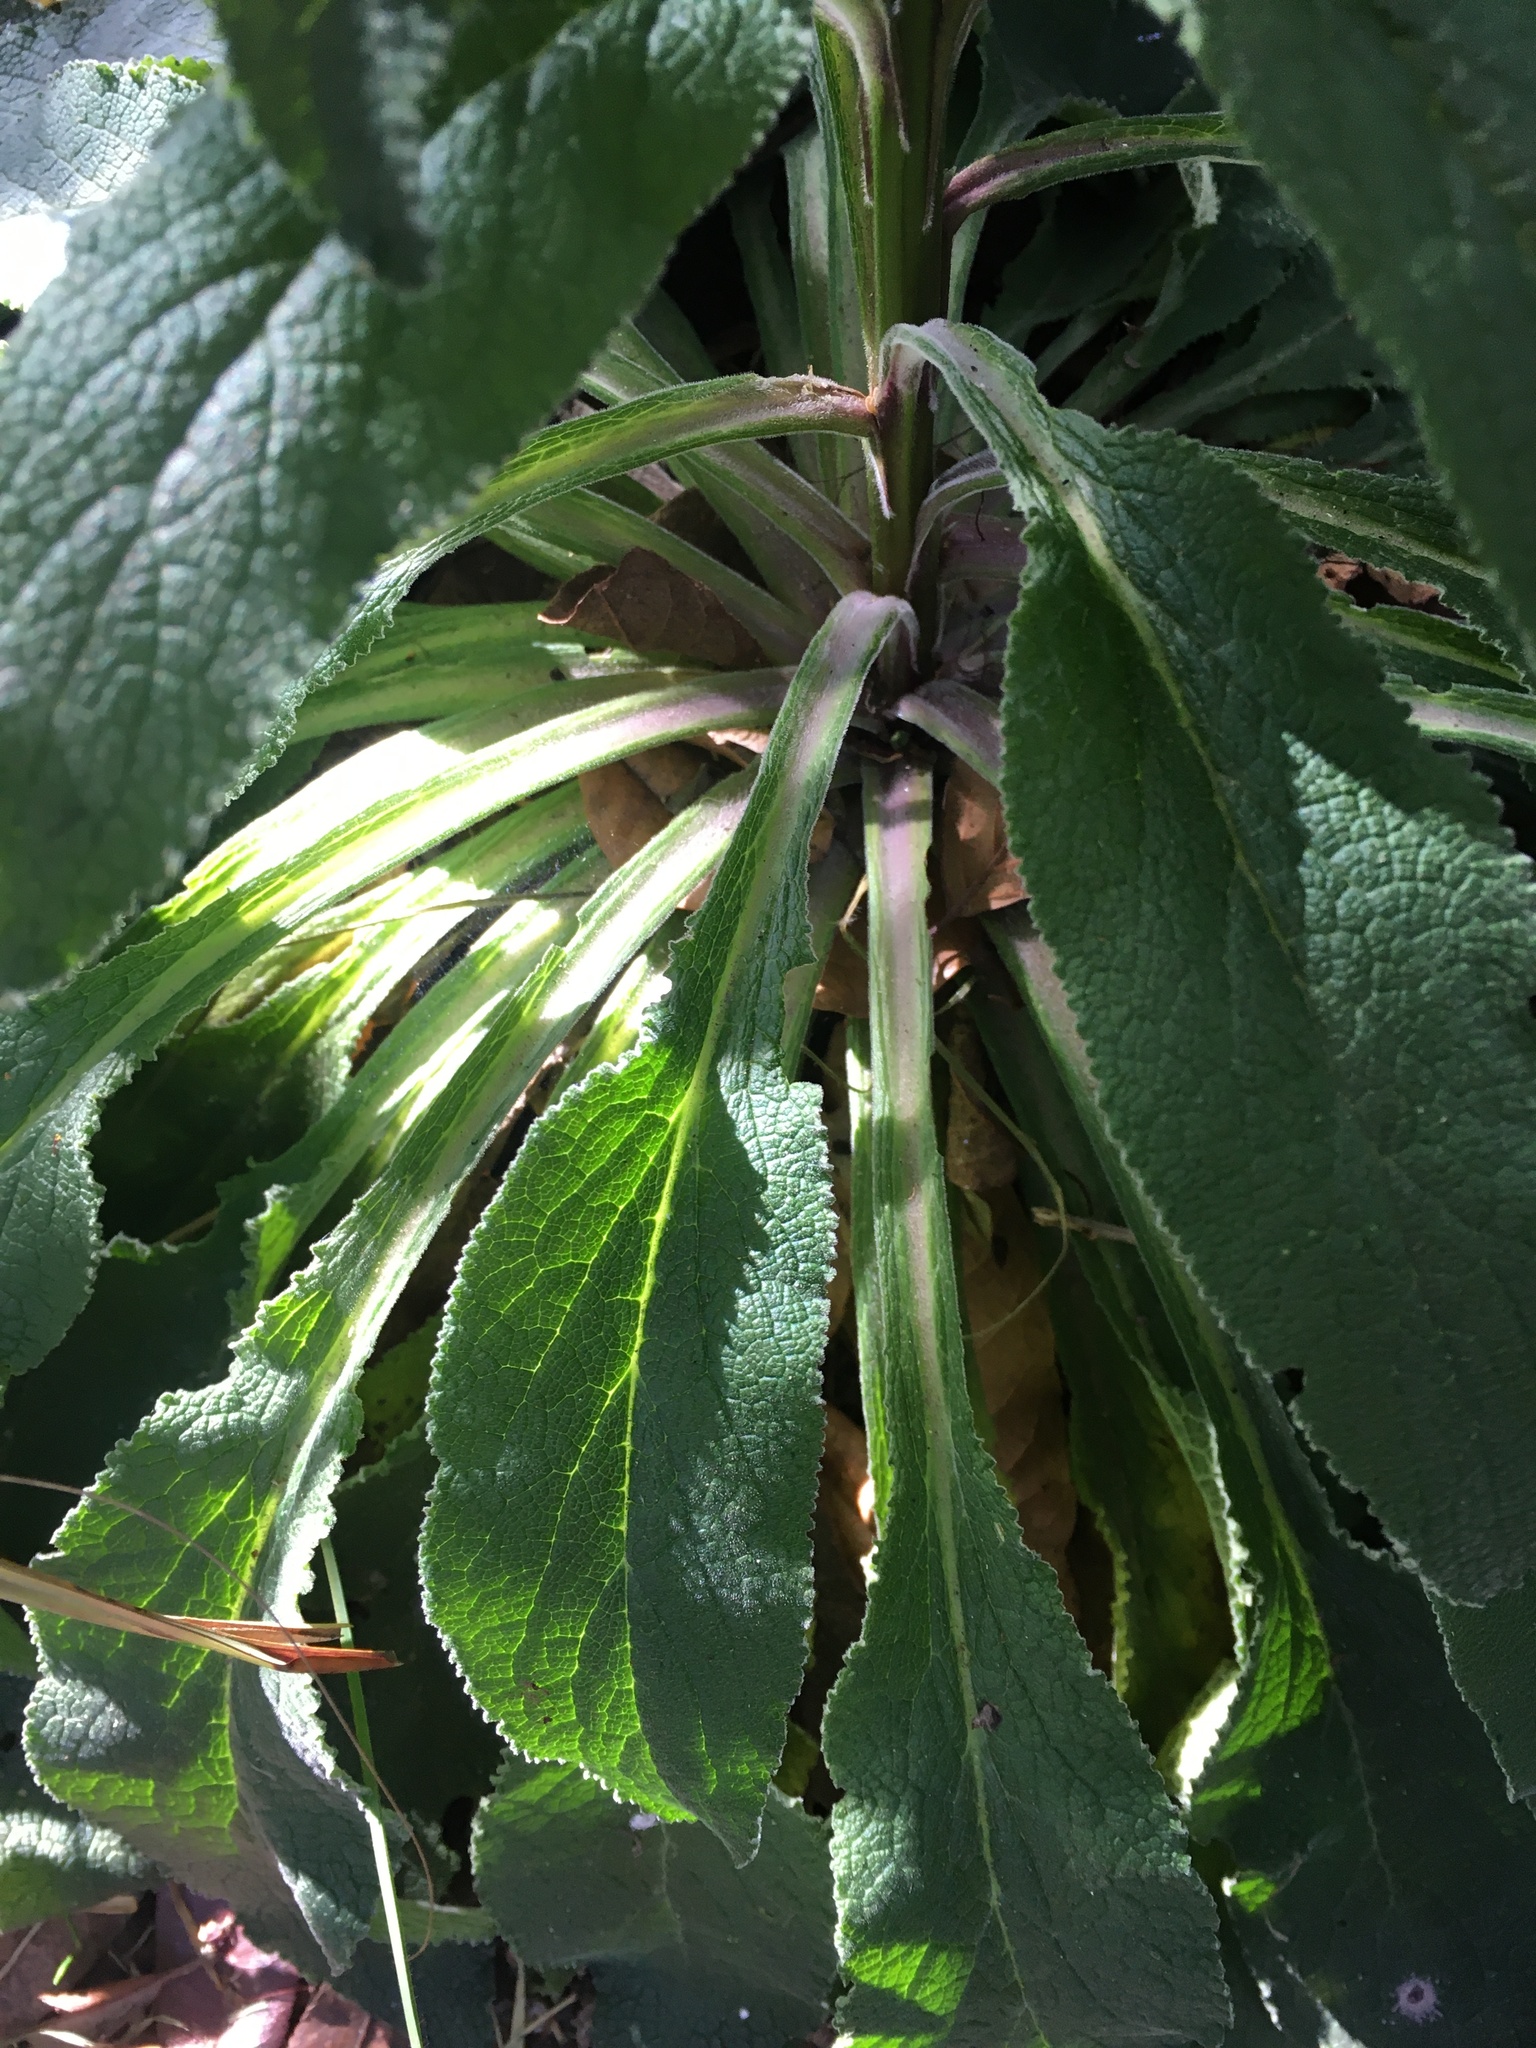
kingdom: Plantae
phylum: Tracheophyta
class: Magnoliopsida
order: Lamiales
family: Plantaginaceae
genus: Digitalis
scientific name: Digitalis purpurea
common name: Foxglove
